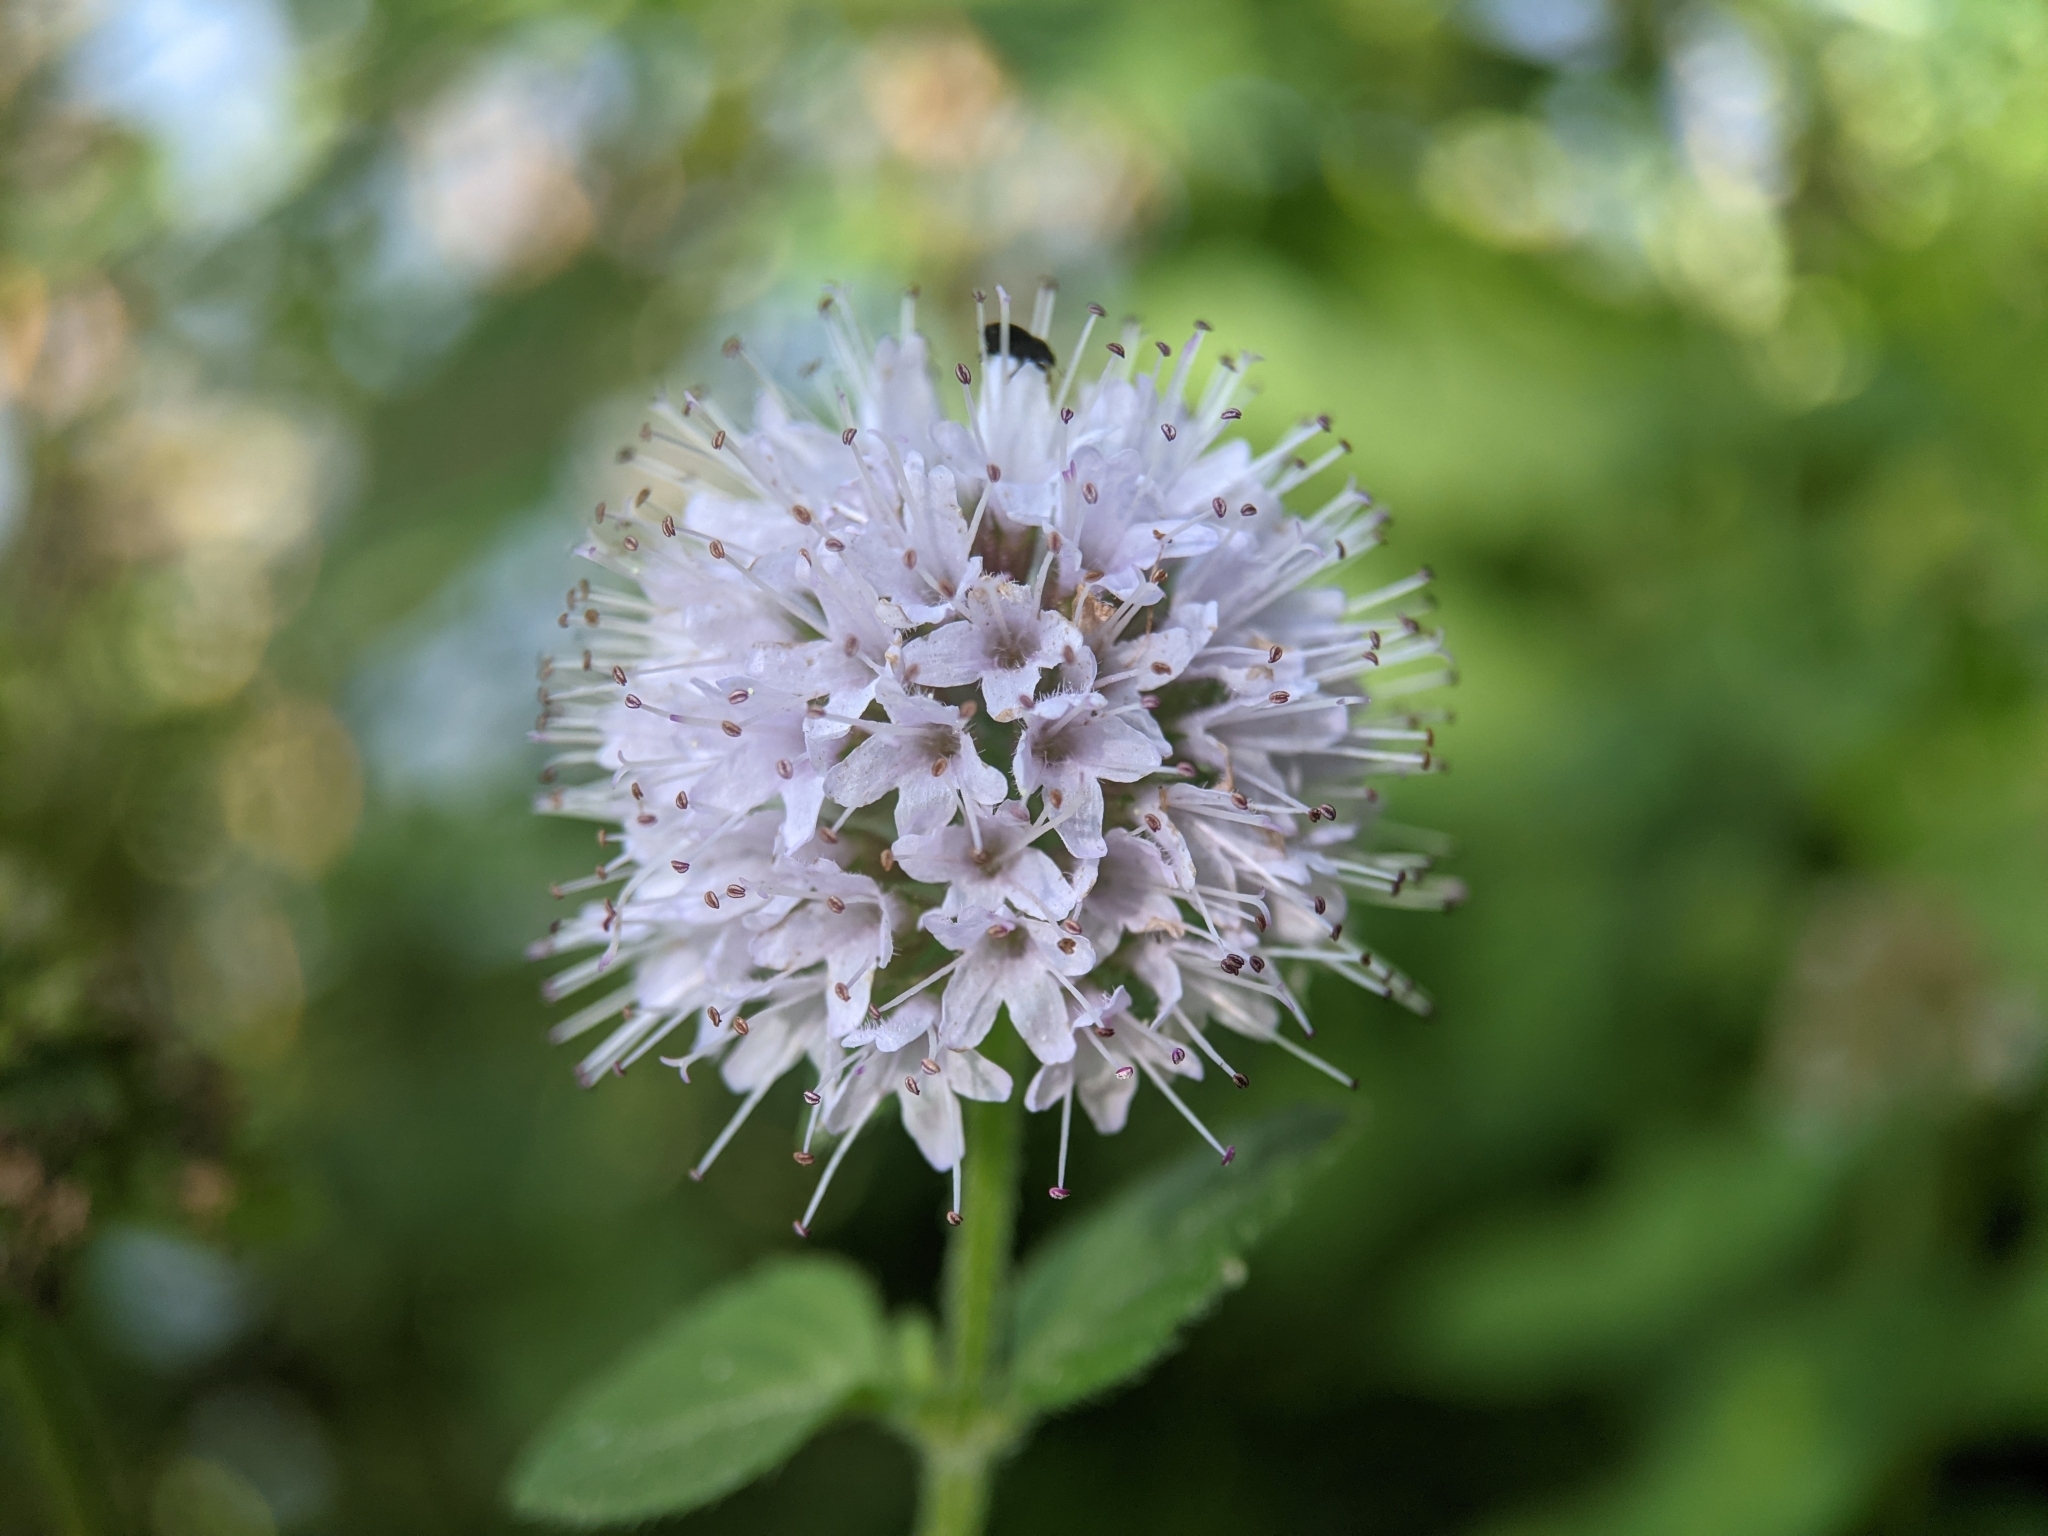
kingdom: Plantae
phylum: Tracheophyta
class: Magnoliopsida
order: Lamiales
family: Lamiaceae
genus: Mentha
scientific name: Mentha aquatica
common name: Water mint
